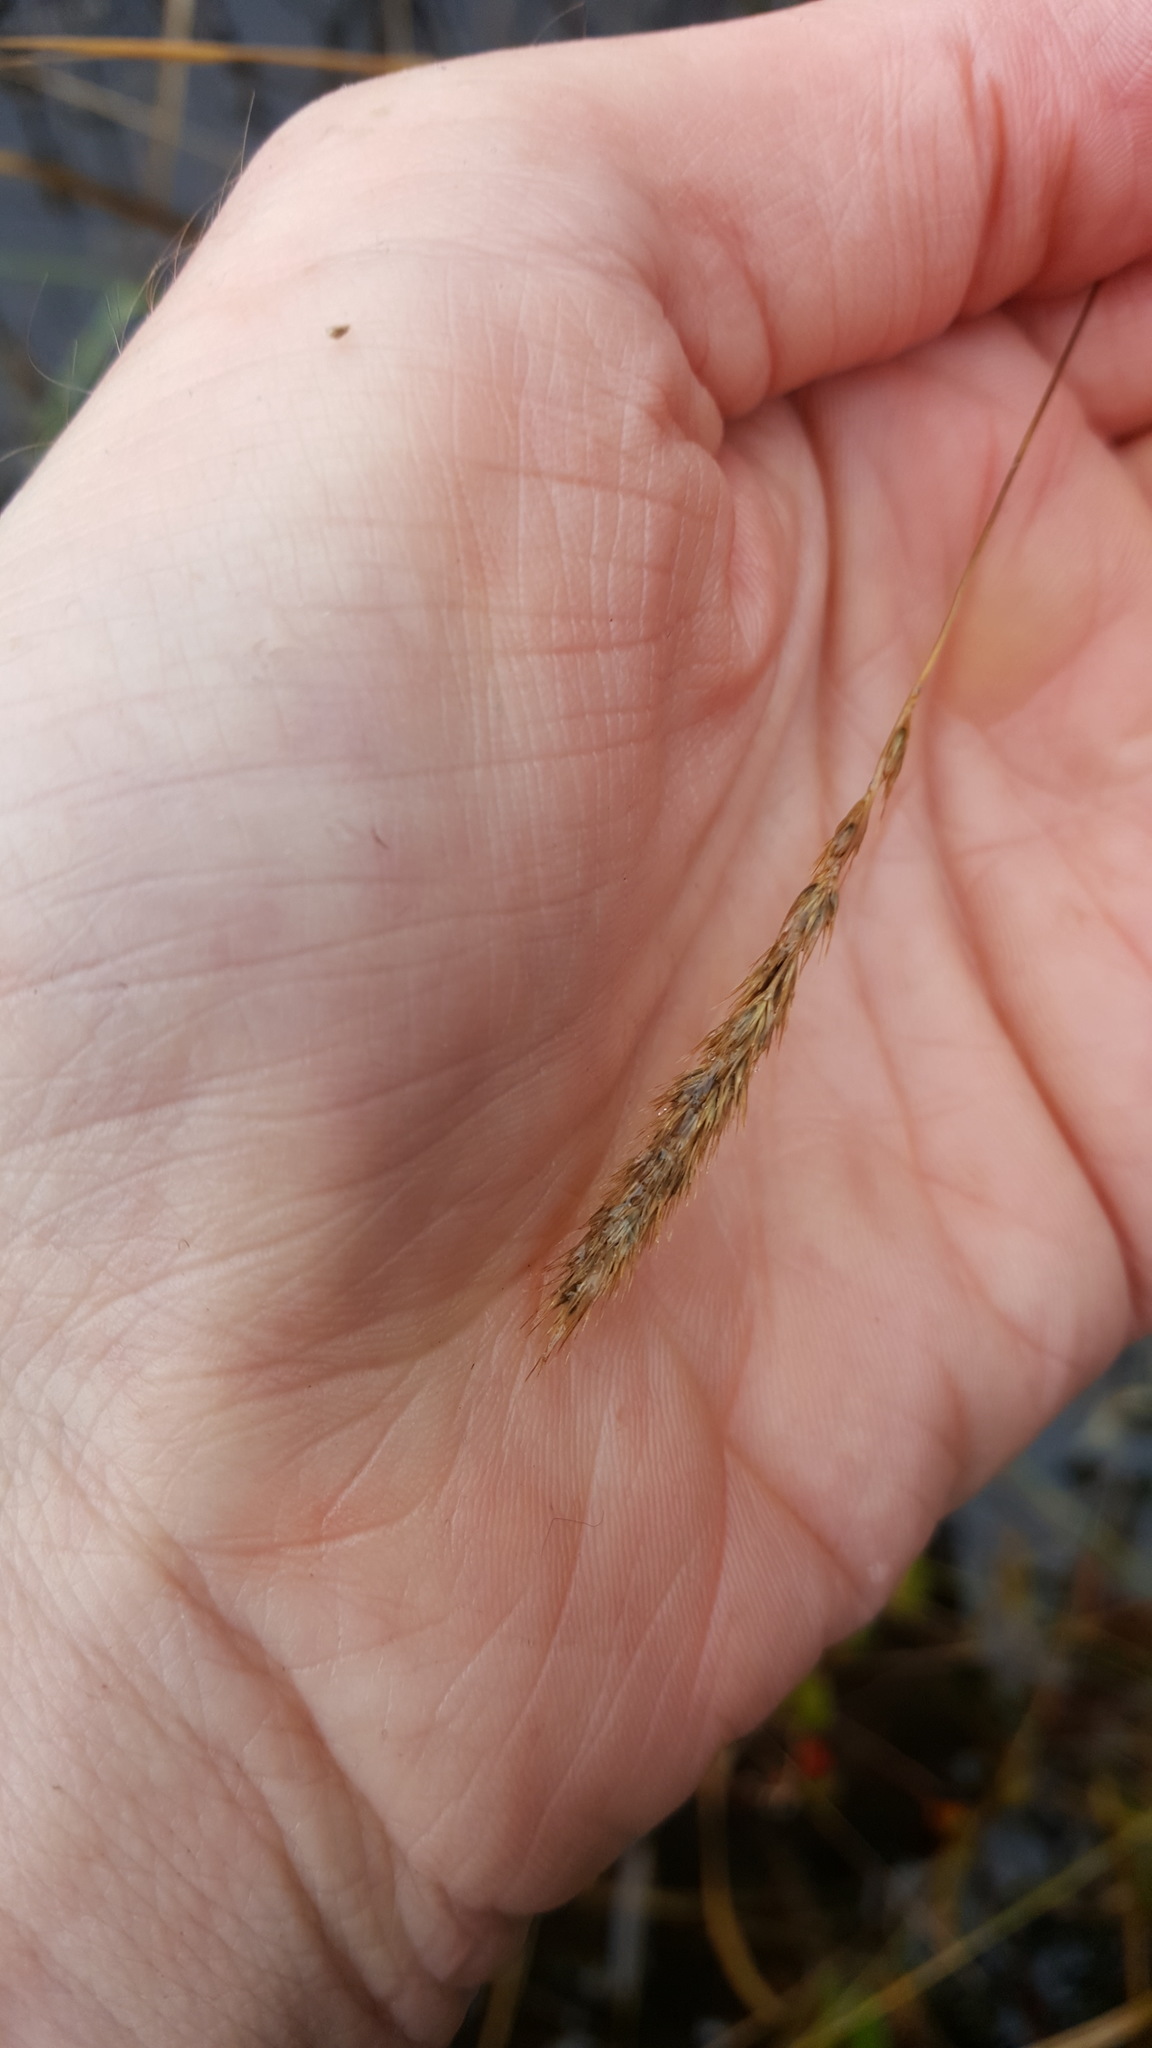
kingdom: Plantae
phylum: Tracheophyta
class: Liliopsida
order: Poales
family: Poaceae
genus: Muhlenbergia
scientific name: Muhlenbergia glomerata
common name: Bog muhly
